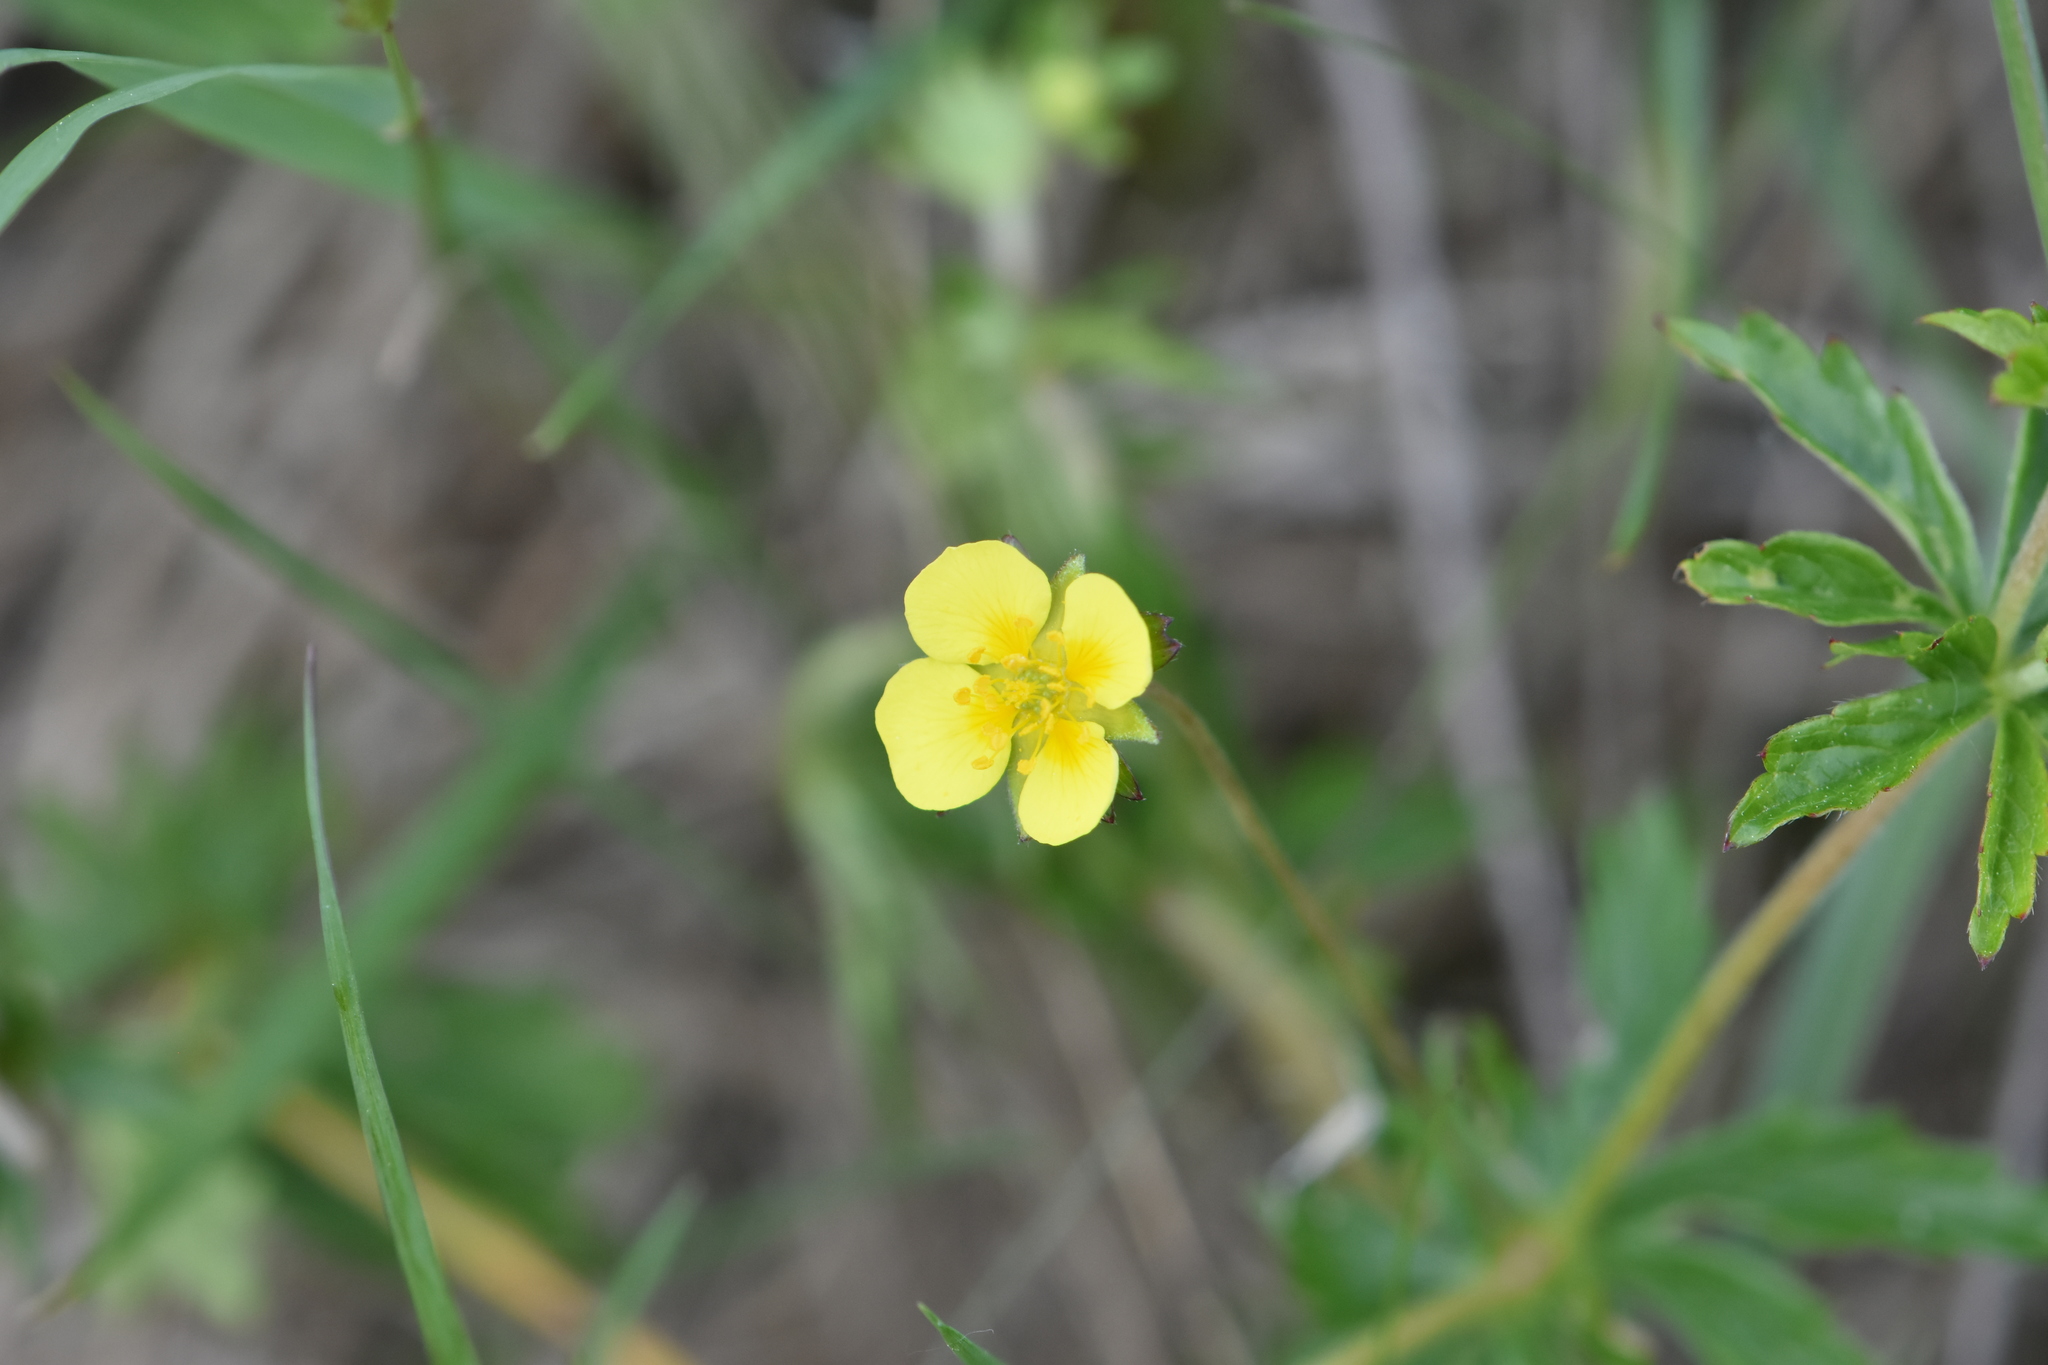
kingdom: Plantae
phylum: Tracheophyta
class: Magnoliopsida
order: Rosales
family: Rosaceae
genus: Potentilla
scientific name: Potentilla erecta
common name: Tormentil
